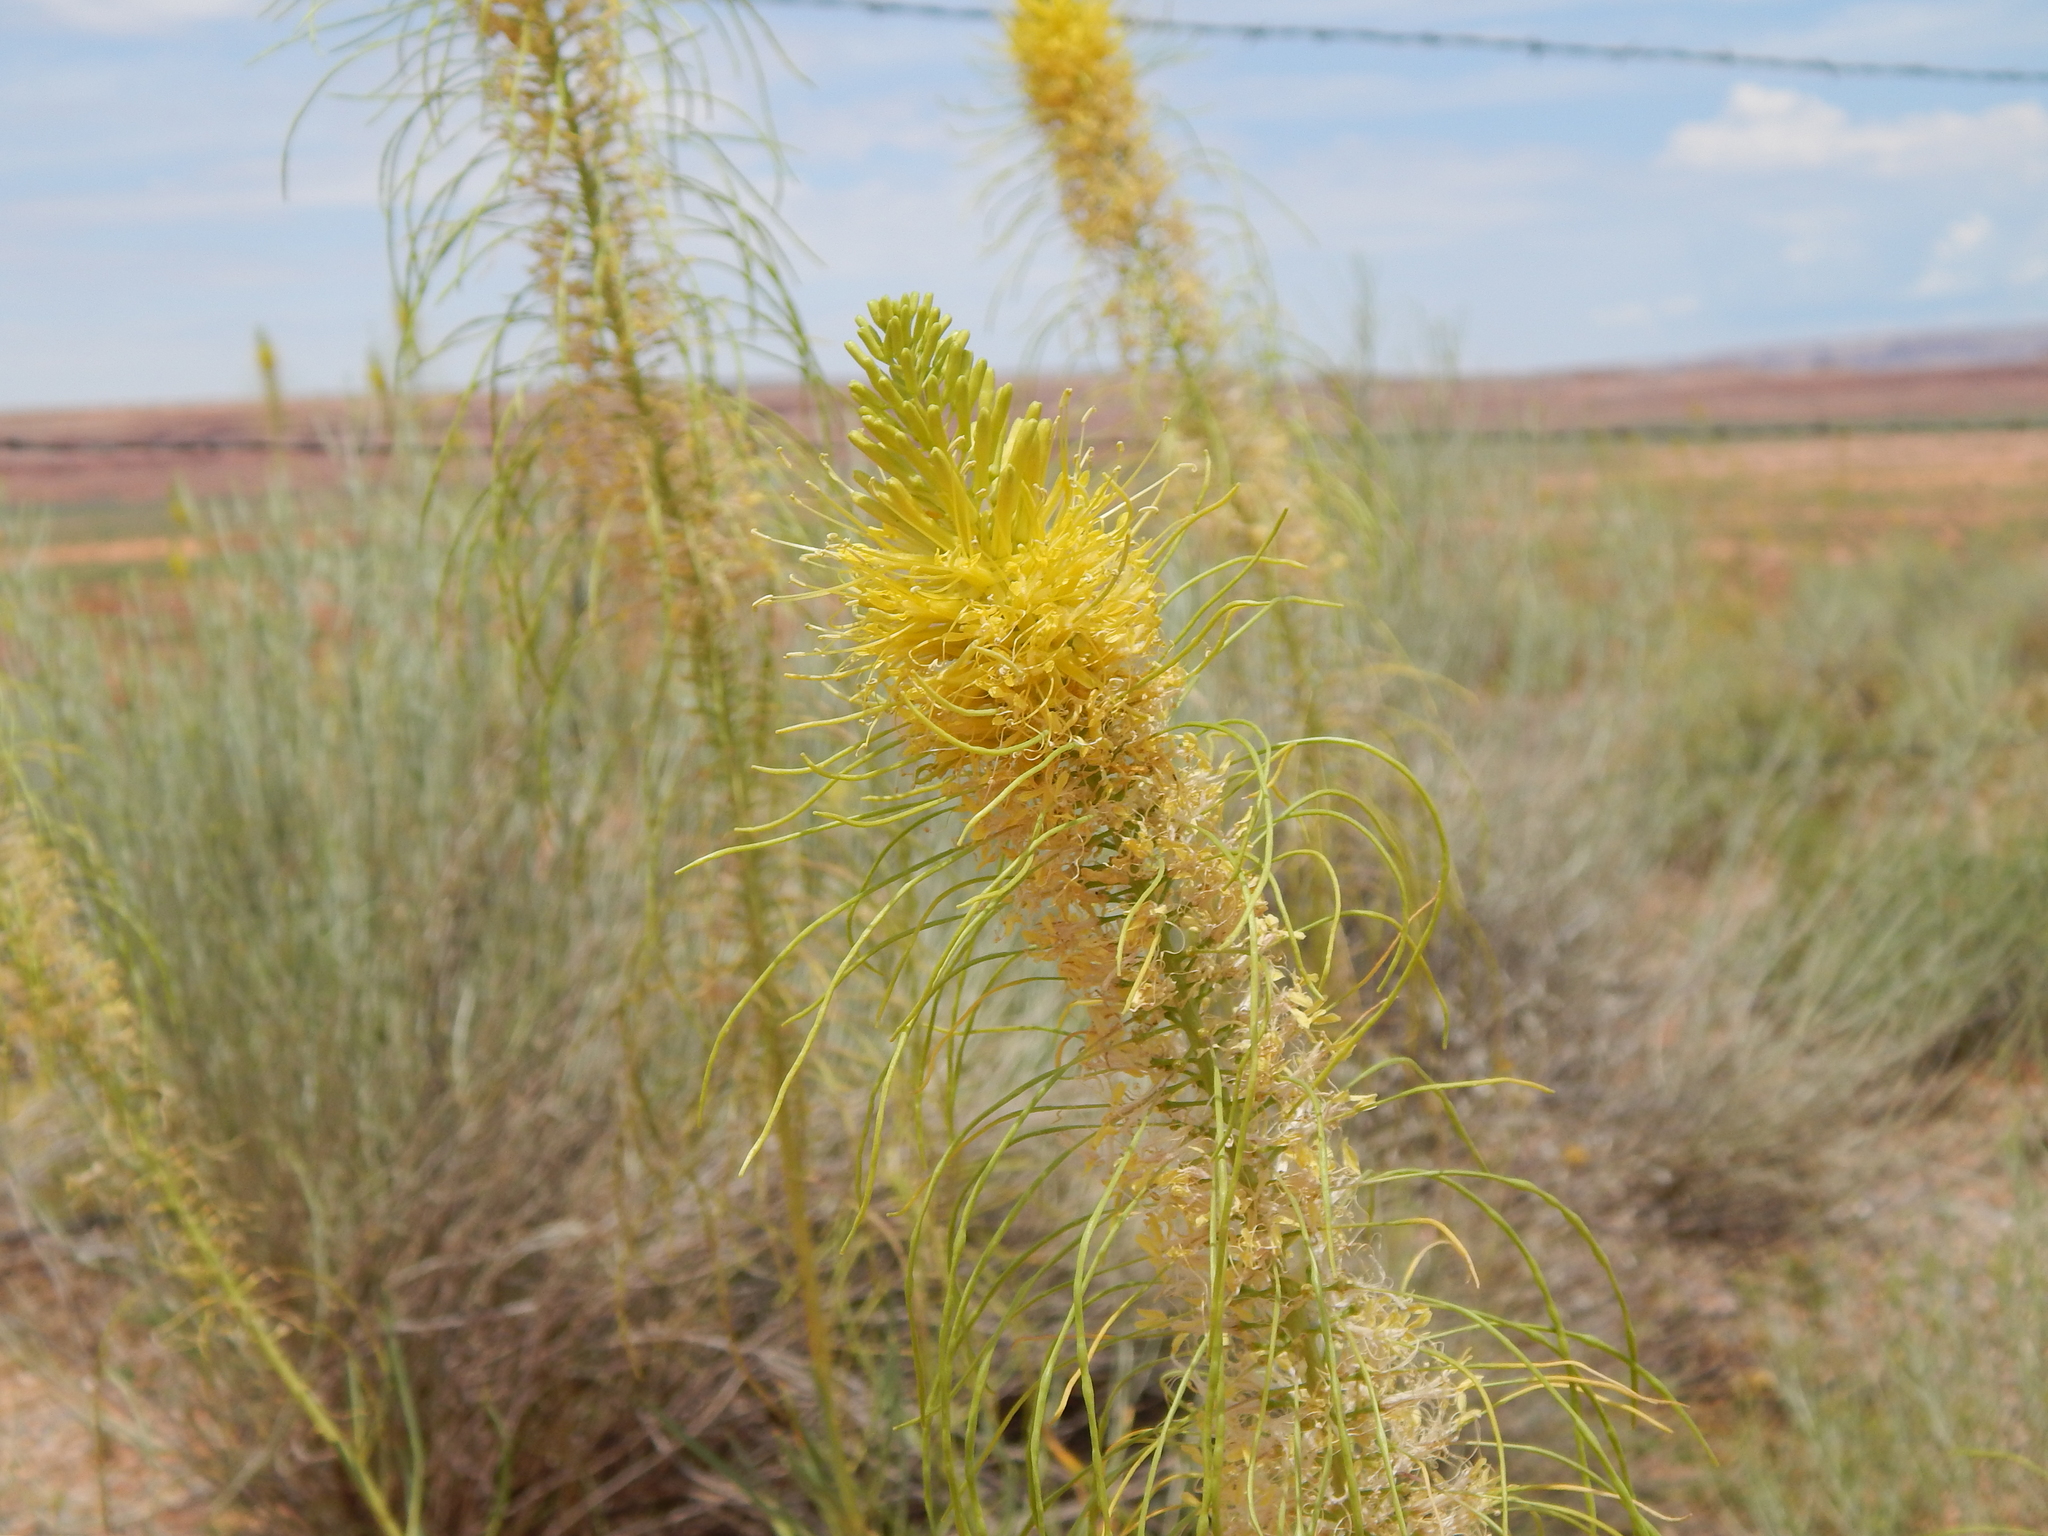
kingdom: Plantae
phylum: Tracheophyta
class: Magnoliopsida
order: Brassicales
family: Brassicaceae
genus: Stanleya
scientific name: Stanleya pinnata
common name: Prince's-plume
